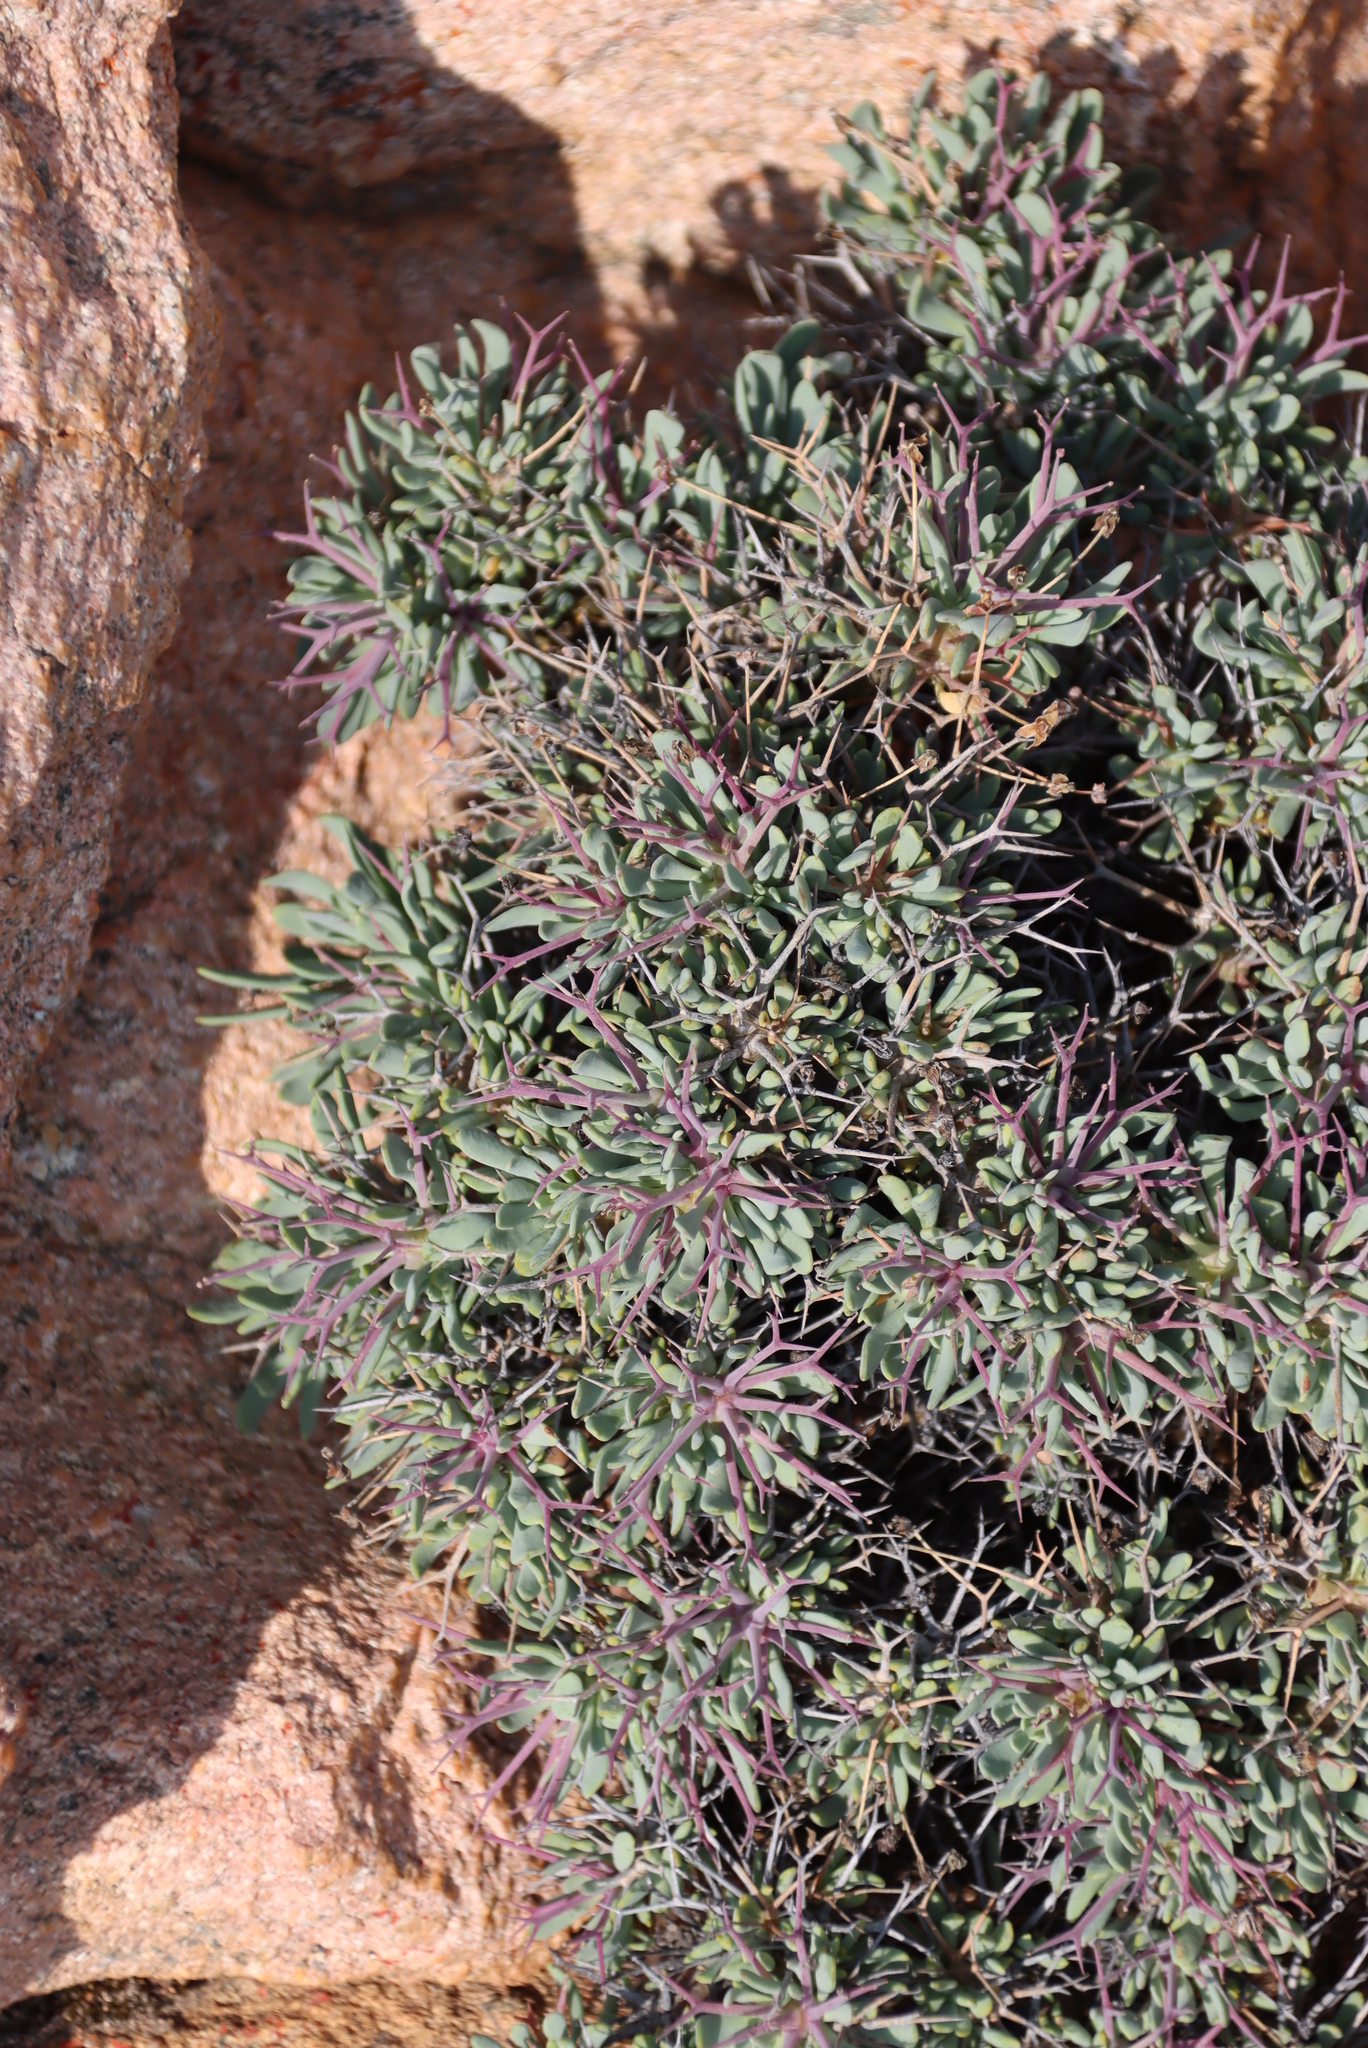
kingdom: Plantae
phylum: Tracheophyta
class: Magnoliopsida
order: Asterales
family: Asteraceae
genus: Othonna
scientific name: Othonna euphorbioides
